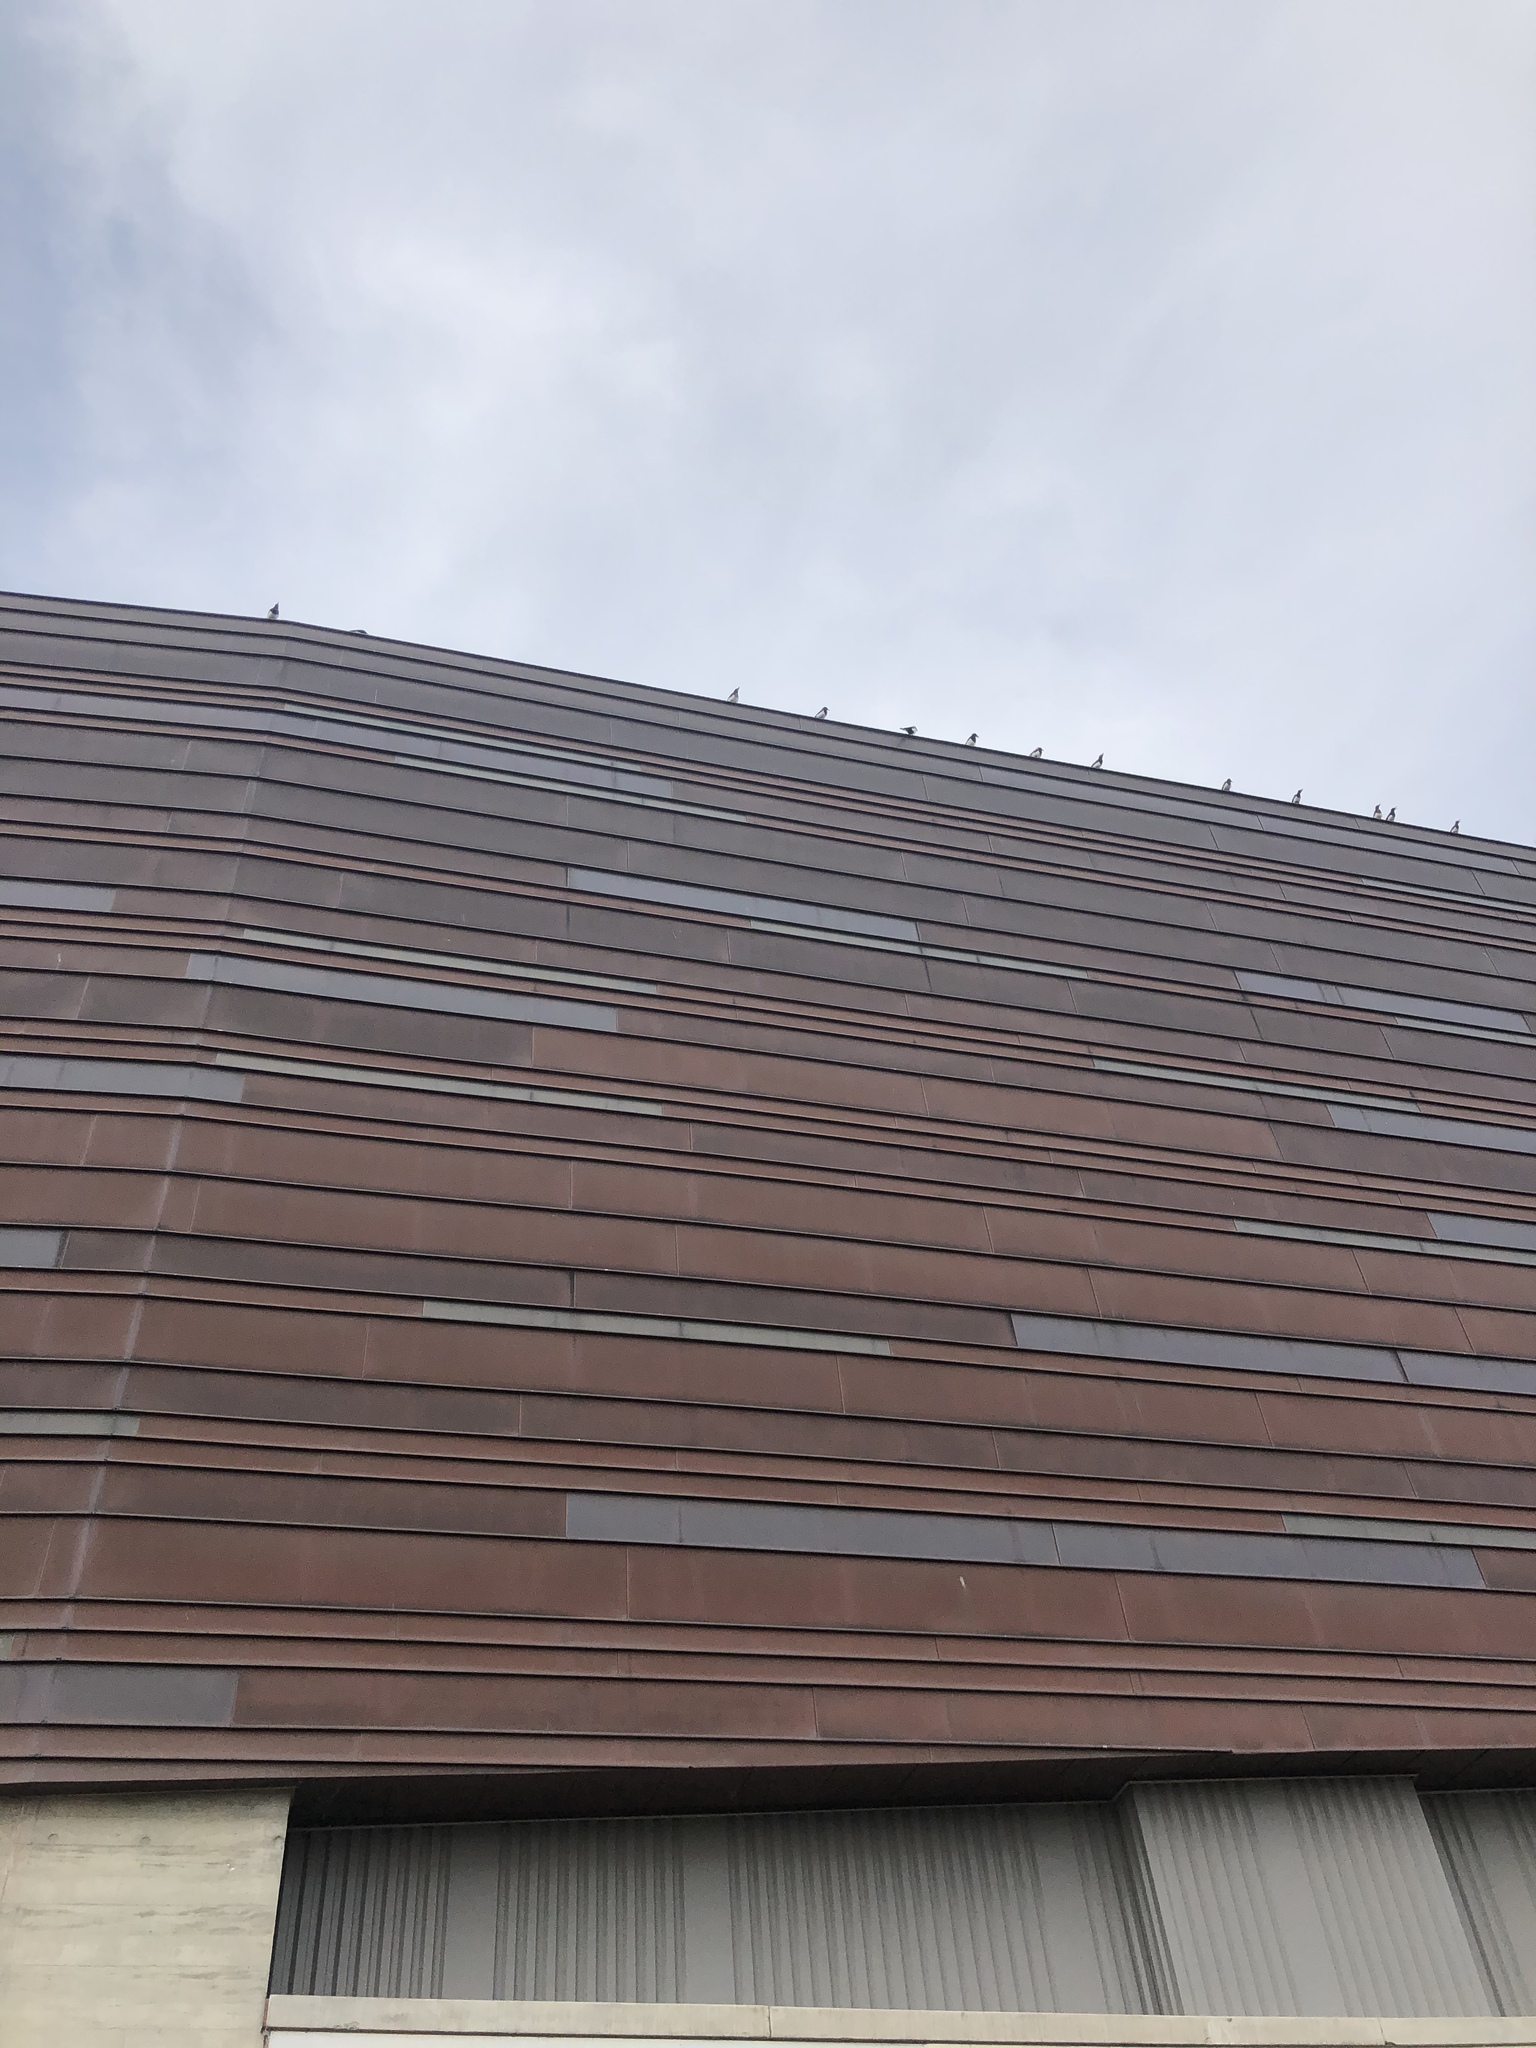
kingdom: Animalia
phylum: Chordata
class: Aves
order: Passeriformes
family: Corvidae
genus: Pica
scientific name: Pica hudsonia
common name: Black-billed magpie
